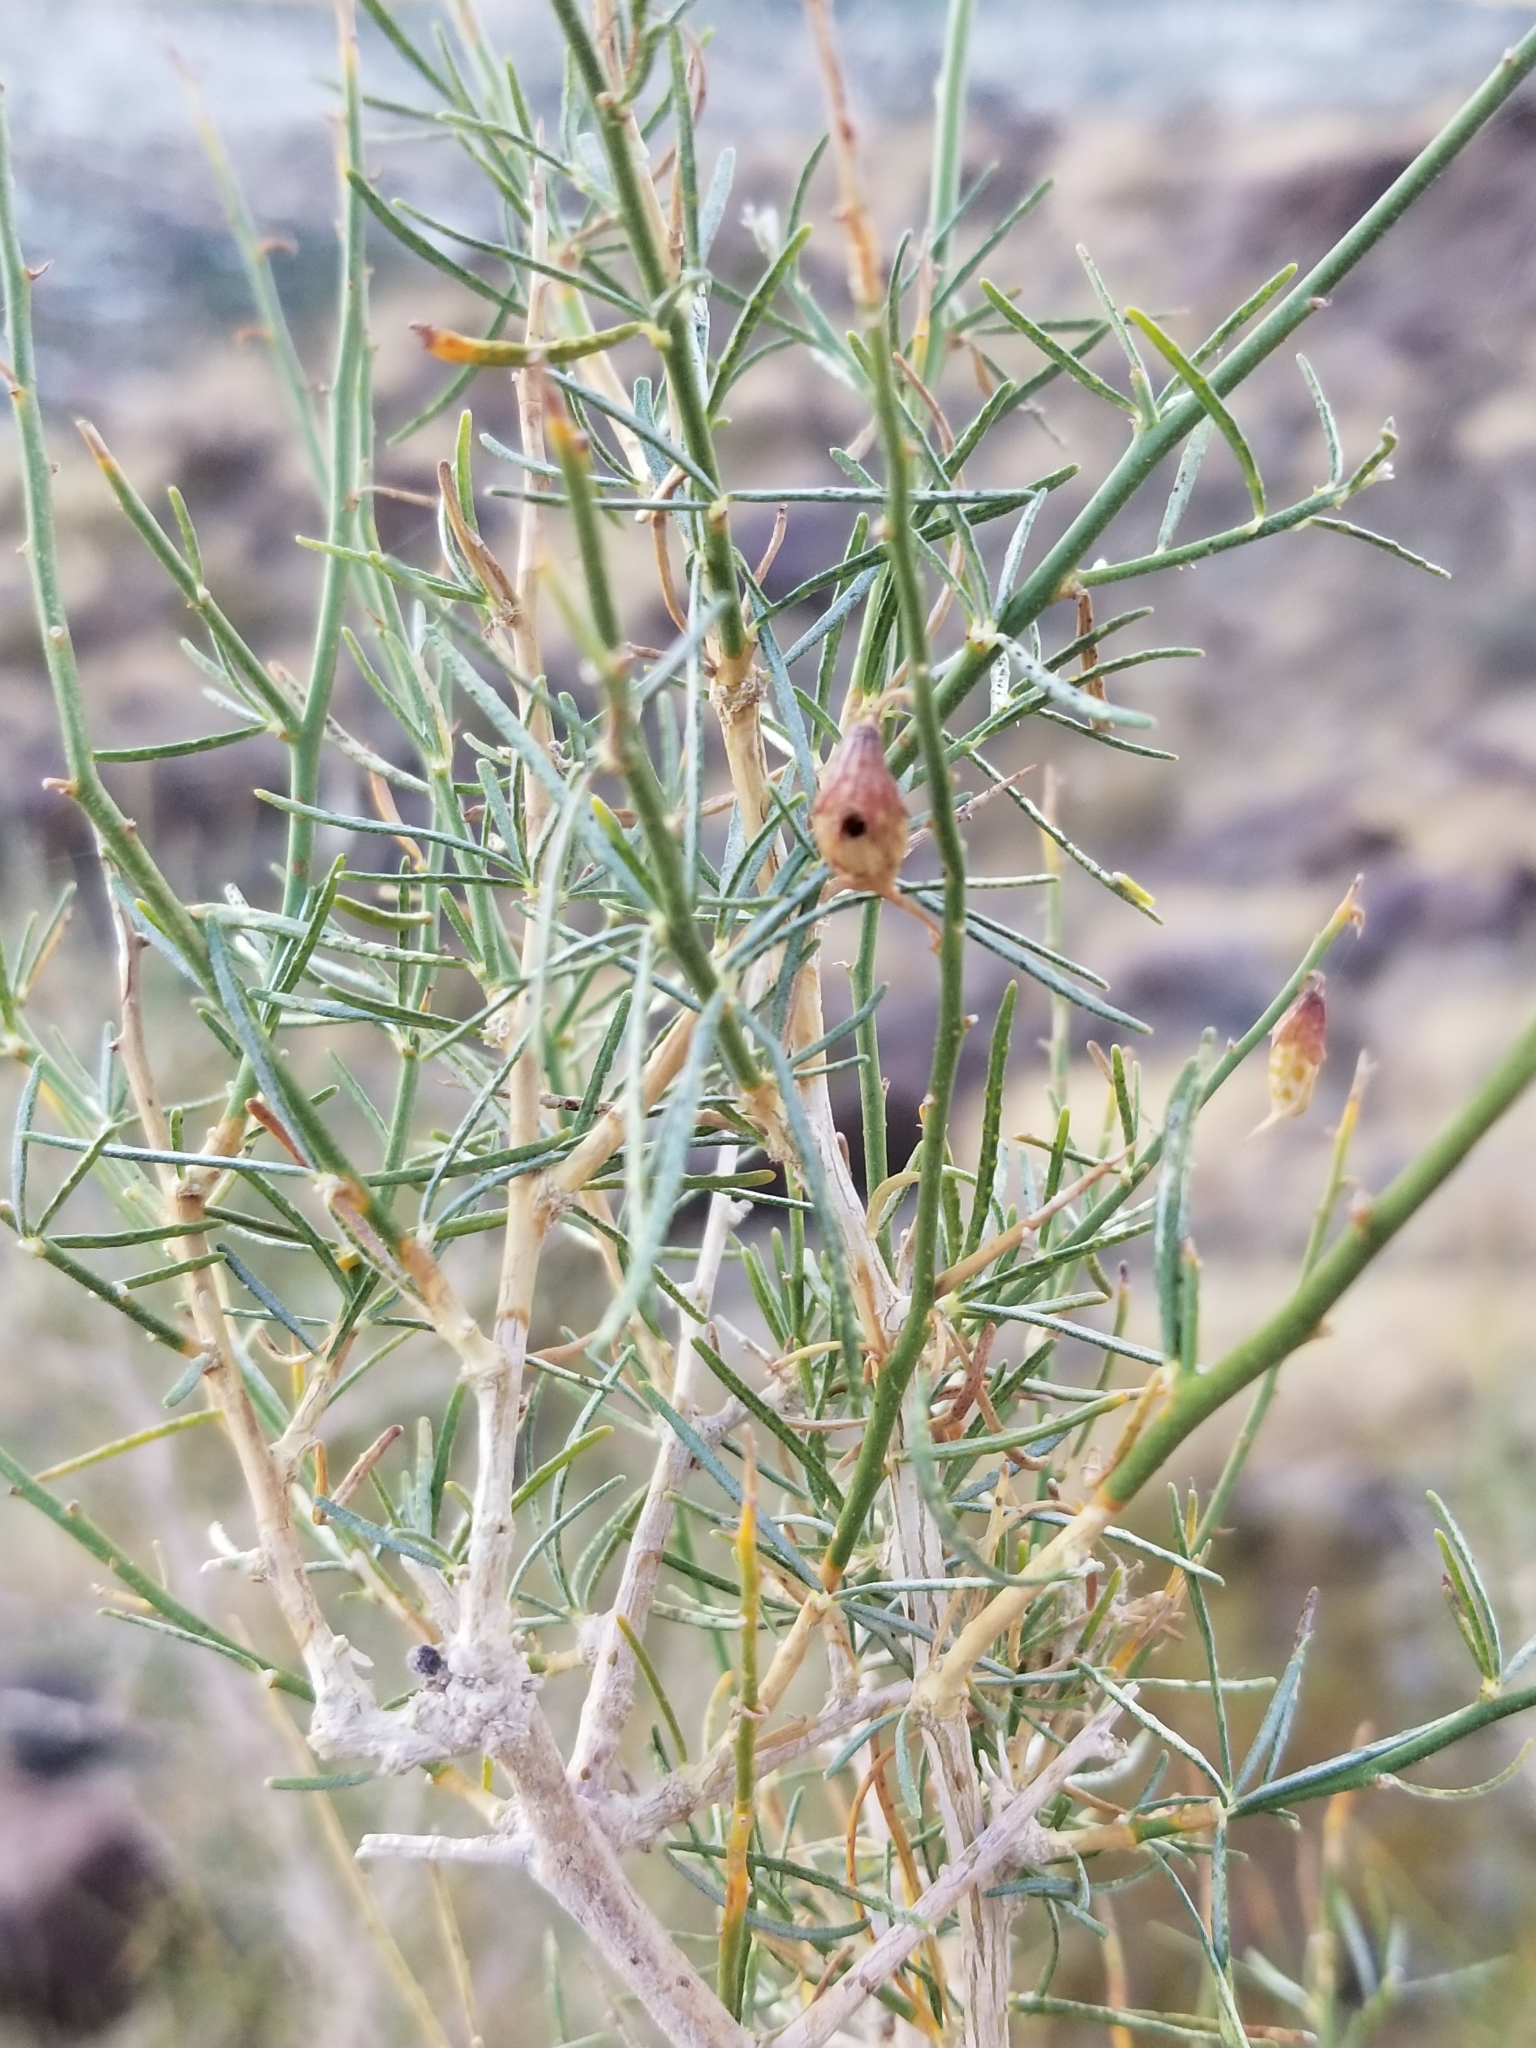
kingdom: Plantae
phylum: Tracheophyta
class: Magnoliopsida
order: Fabales
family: Fabaceae
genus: Psorothamnus
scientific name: Psorothamnus schottii
